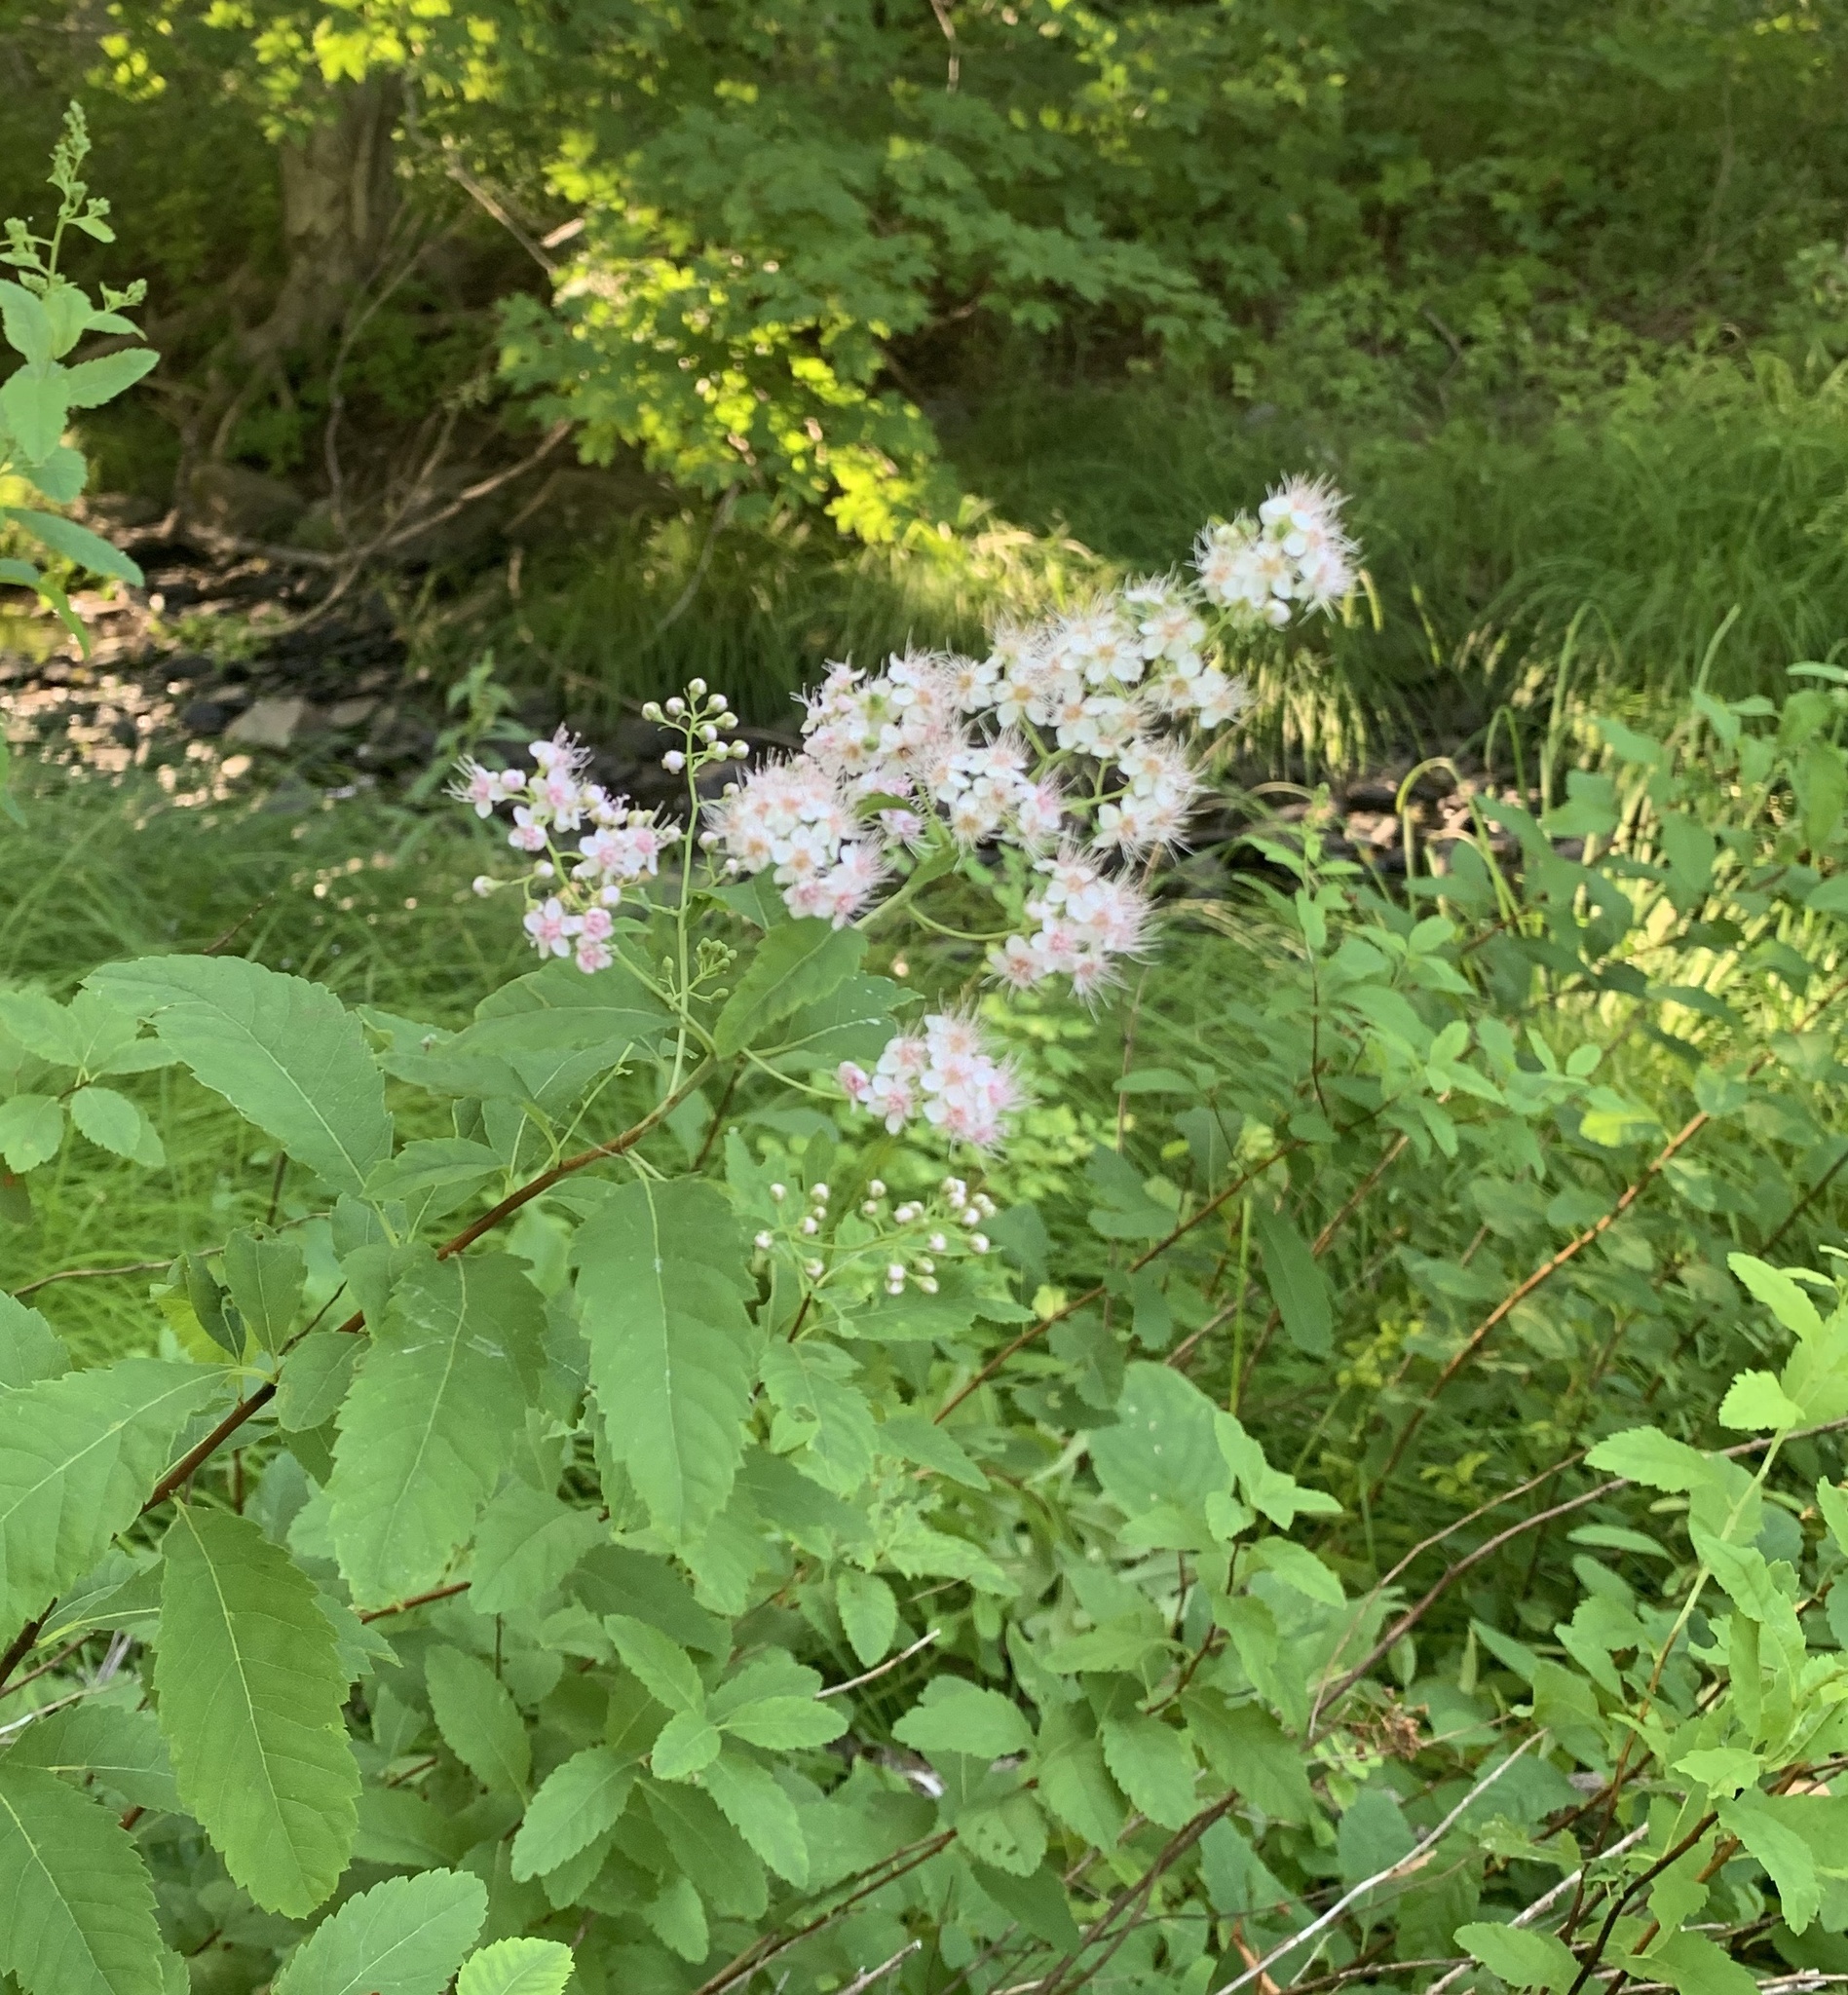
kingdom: Plantae
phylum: Tracheophyta
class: Magnoliopsida
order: Rosales
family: Rosaceae
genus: Spiraea
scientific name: Spiraea alba
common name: Pale bridewort
